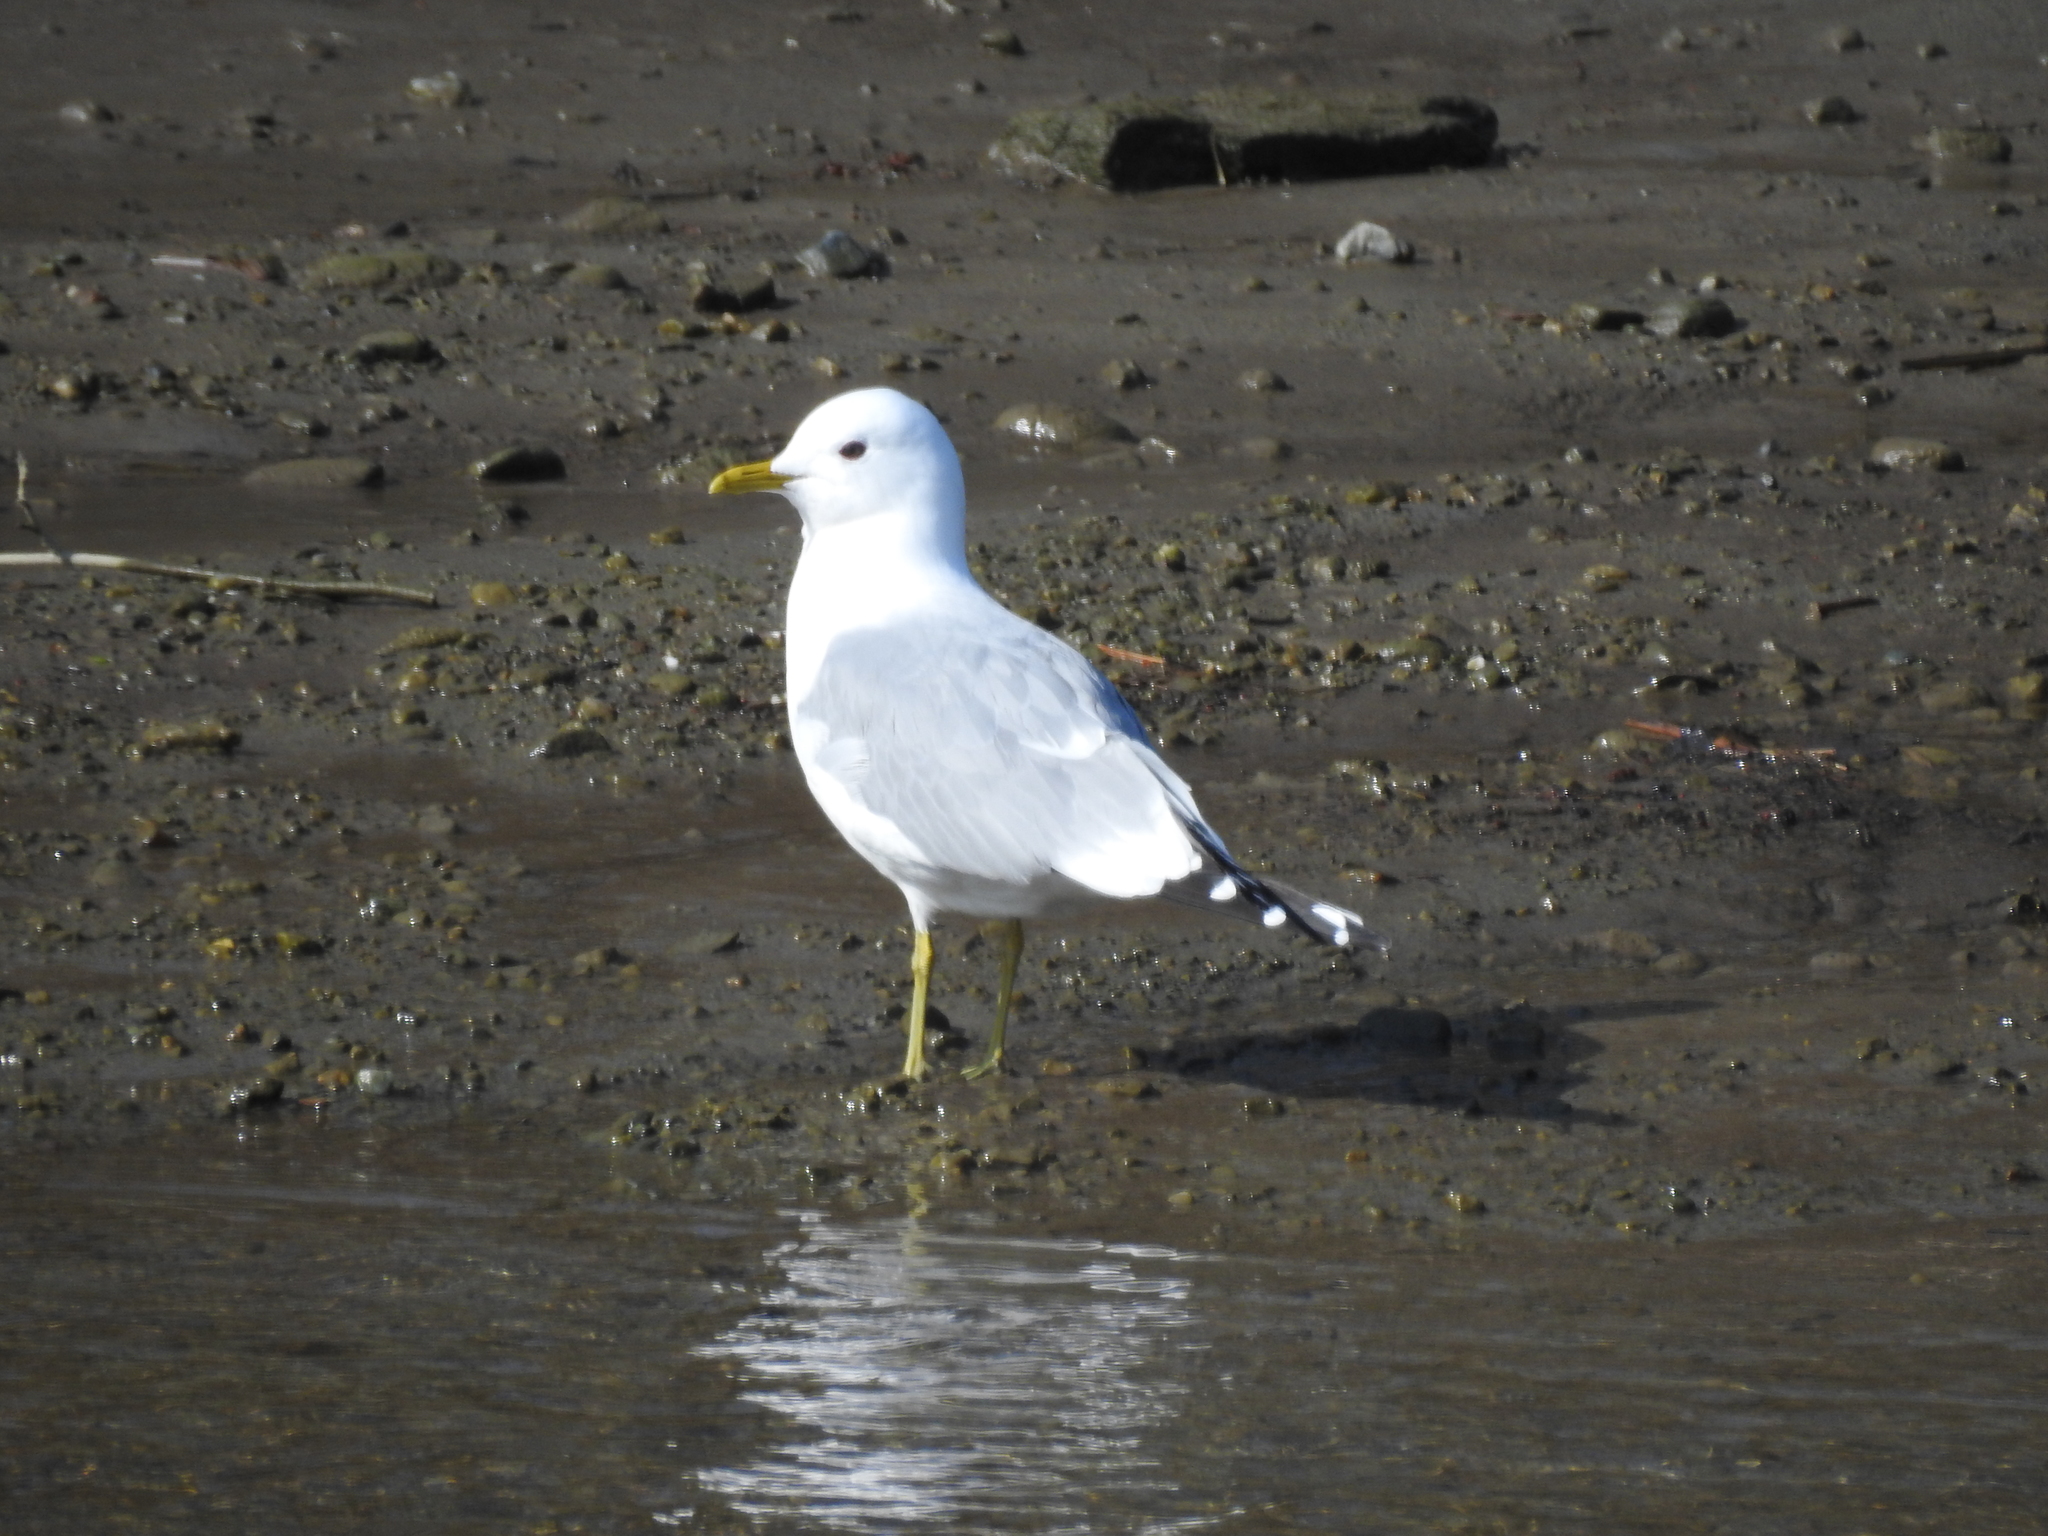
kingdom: Animalia
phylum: Chordata
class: Aves
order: Charadriiformes
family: Laridae
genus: Larus
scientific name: Larus canus
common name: Mew gull
